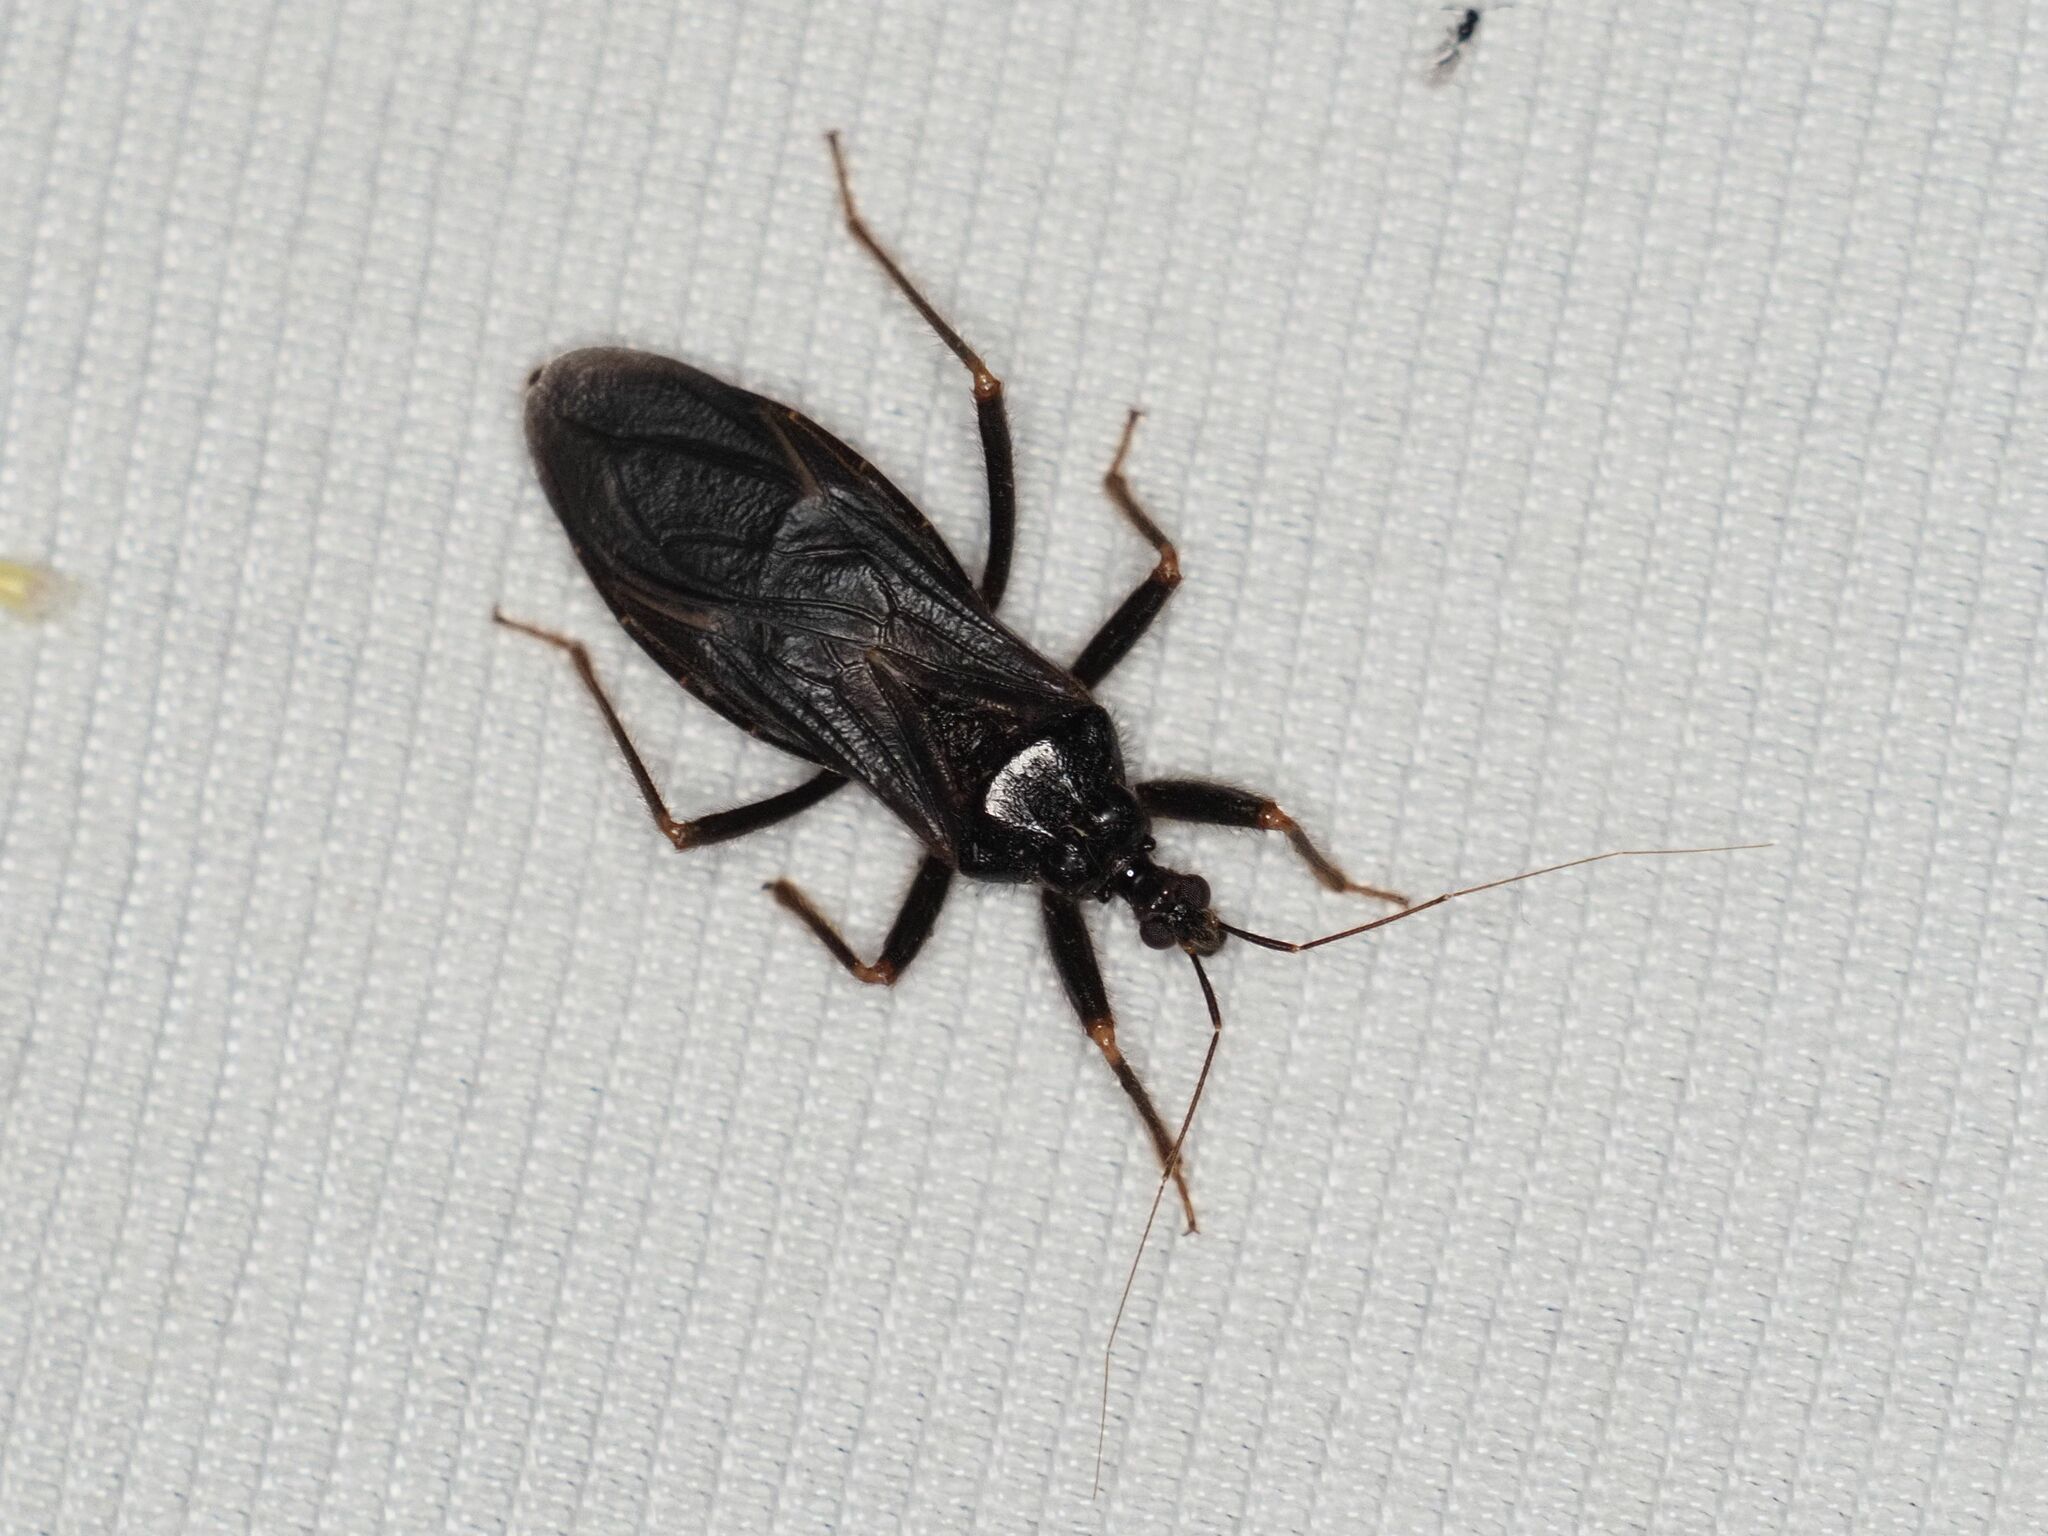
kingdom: Animalia
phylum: Arthropoda
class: Insecta
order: Hemiptera
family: Reduviidae
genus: Reduvius
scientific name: Reduvius personatus
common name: Masked hunter
